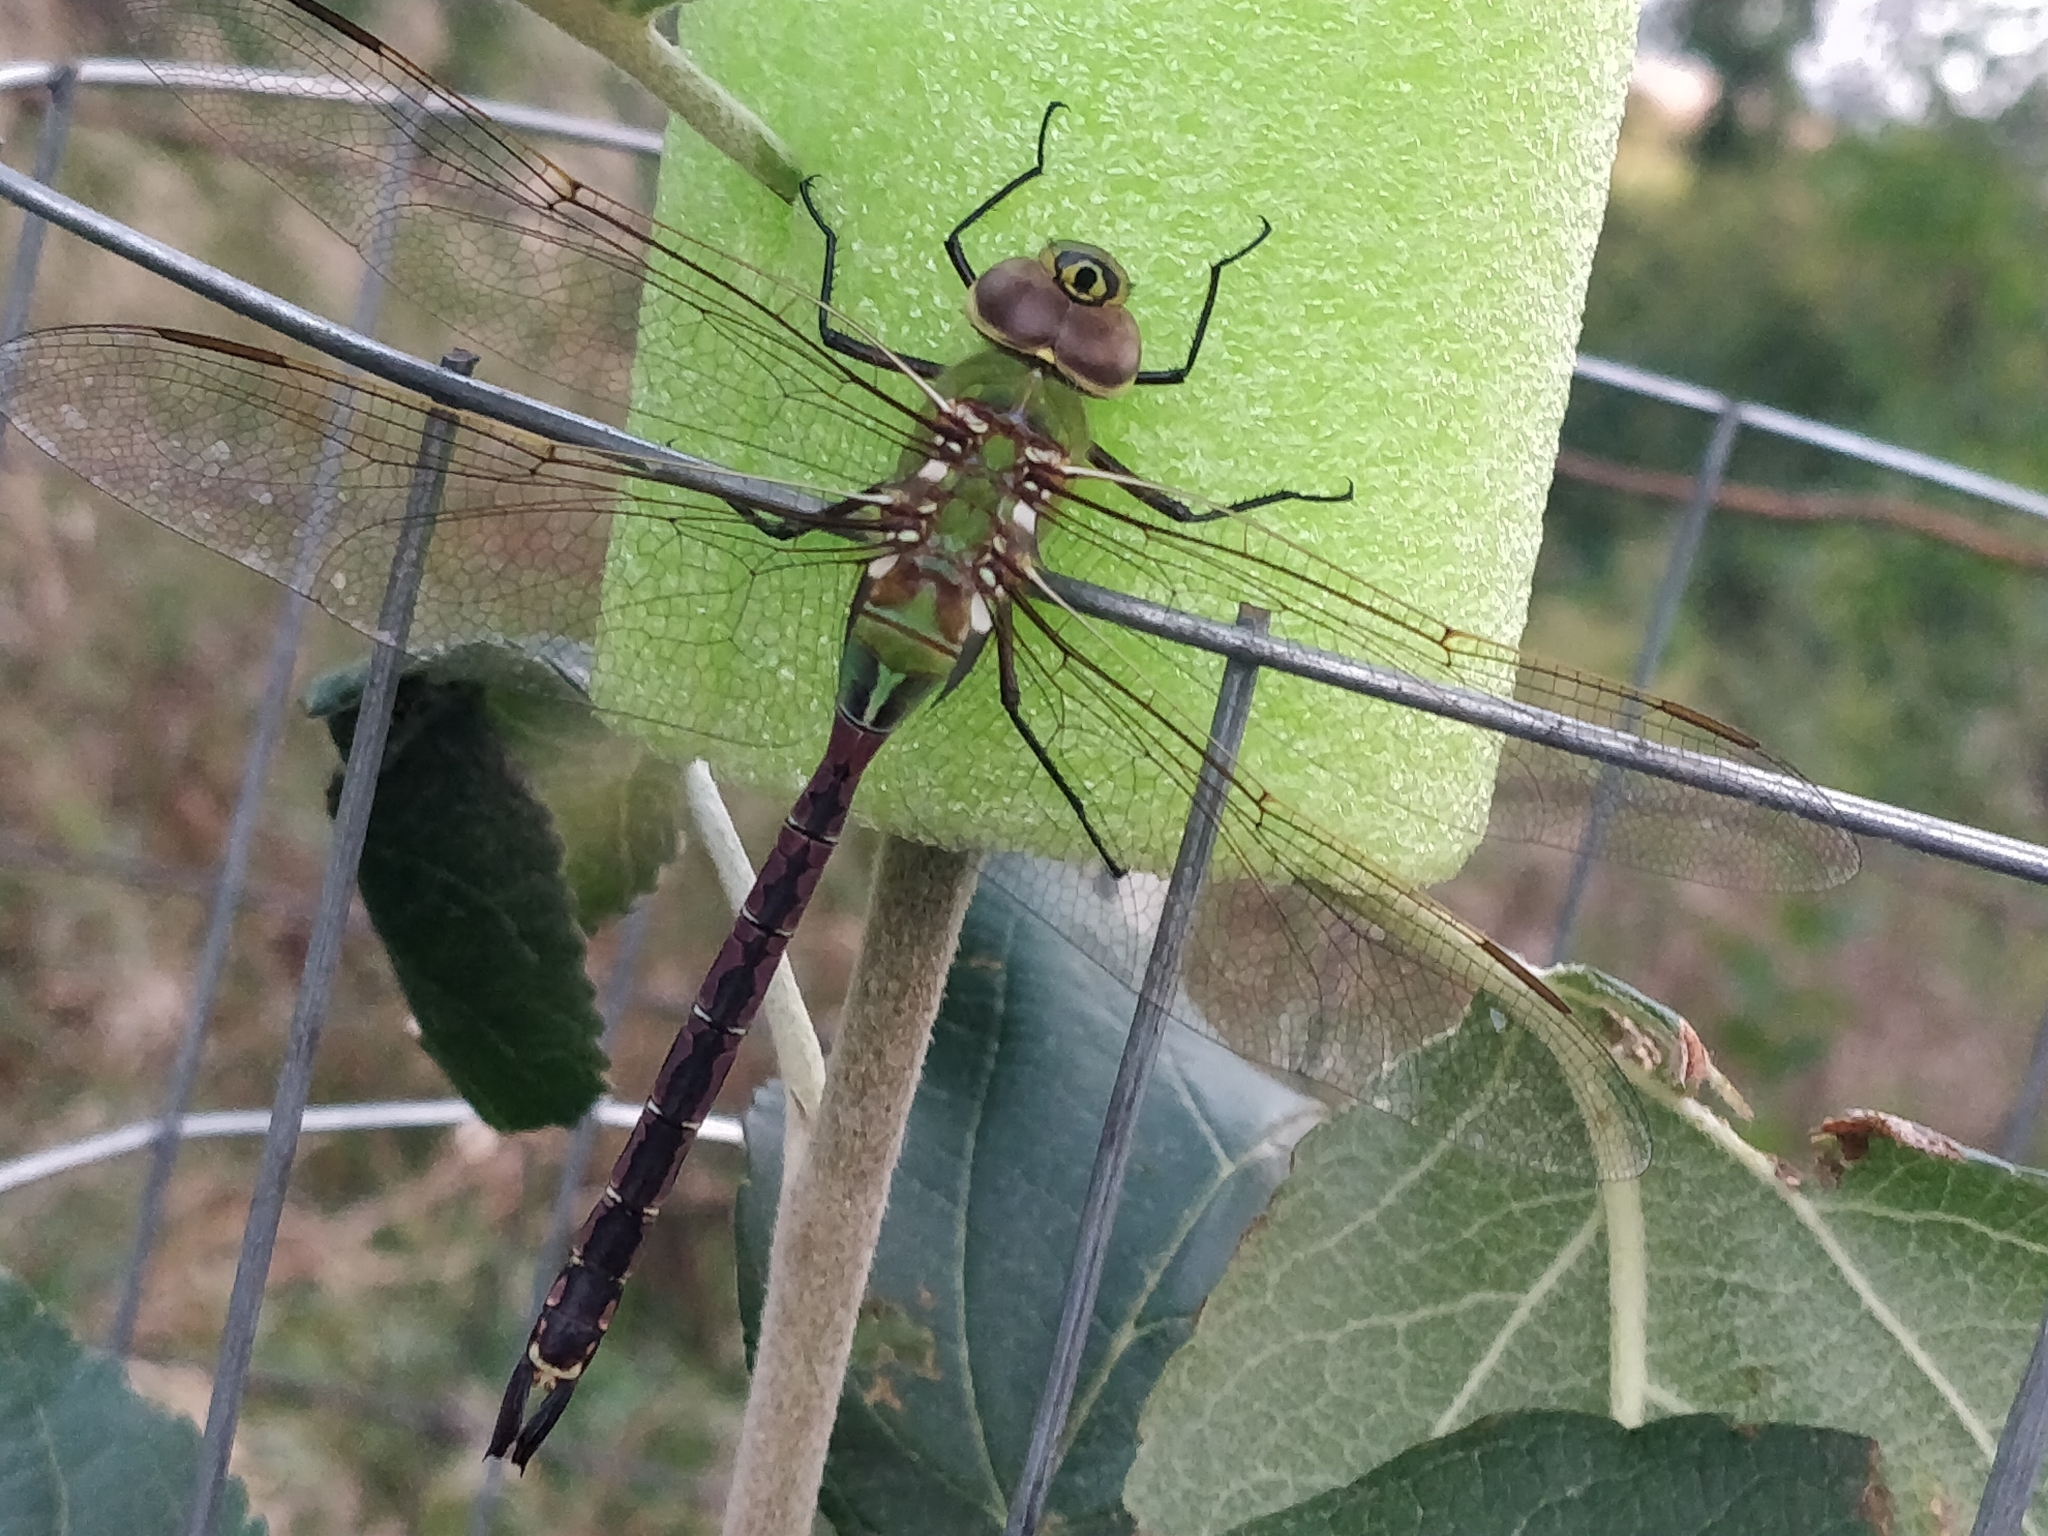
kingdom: Animalia
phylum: Arthropoda
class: Insecta
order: Odonata
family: Aeshnidae
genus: Anax
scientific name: Anax junius
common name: Common green darner
